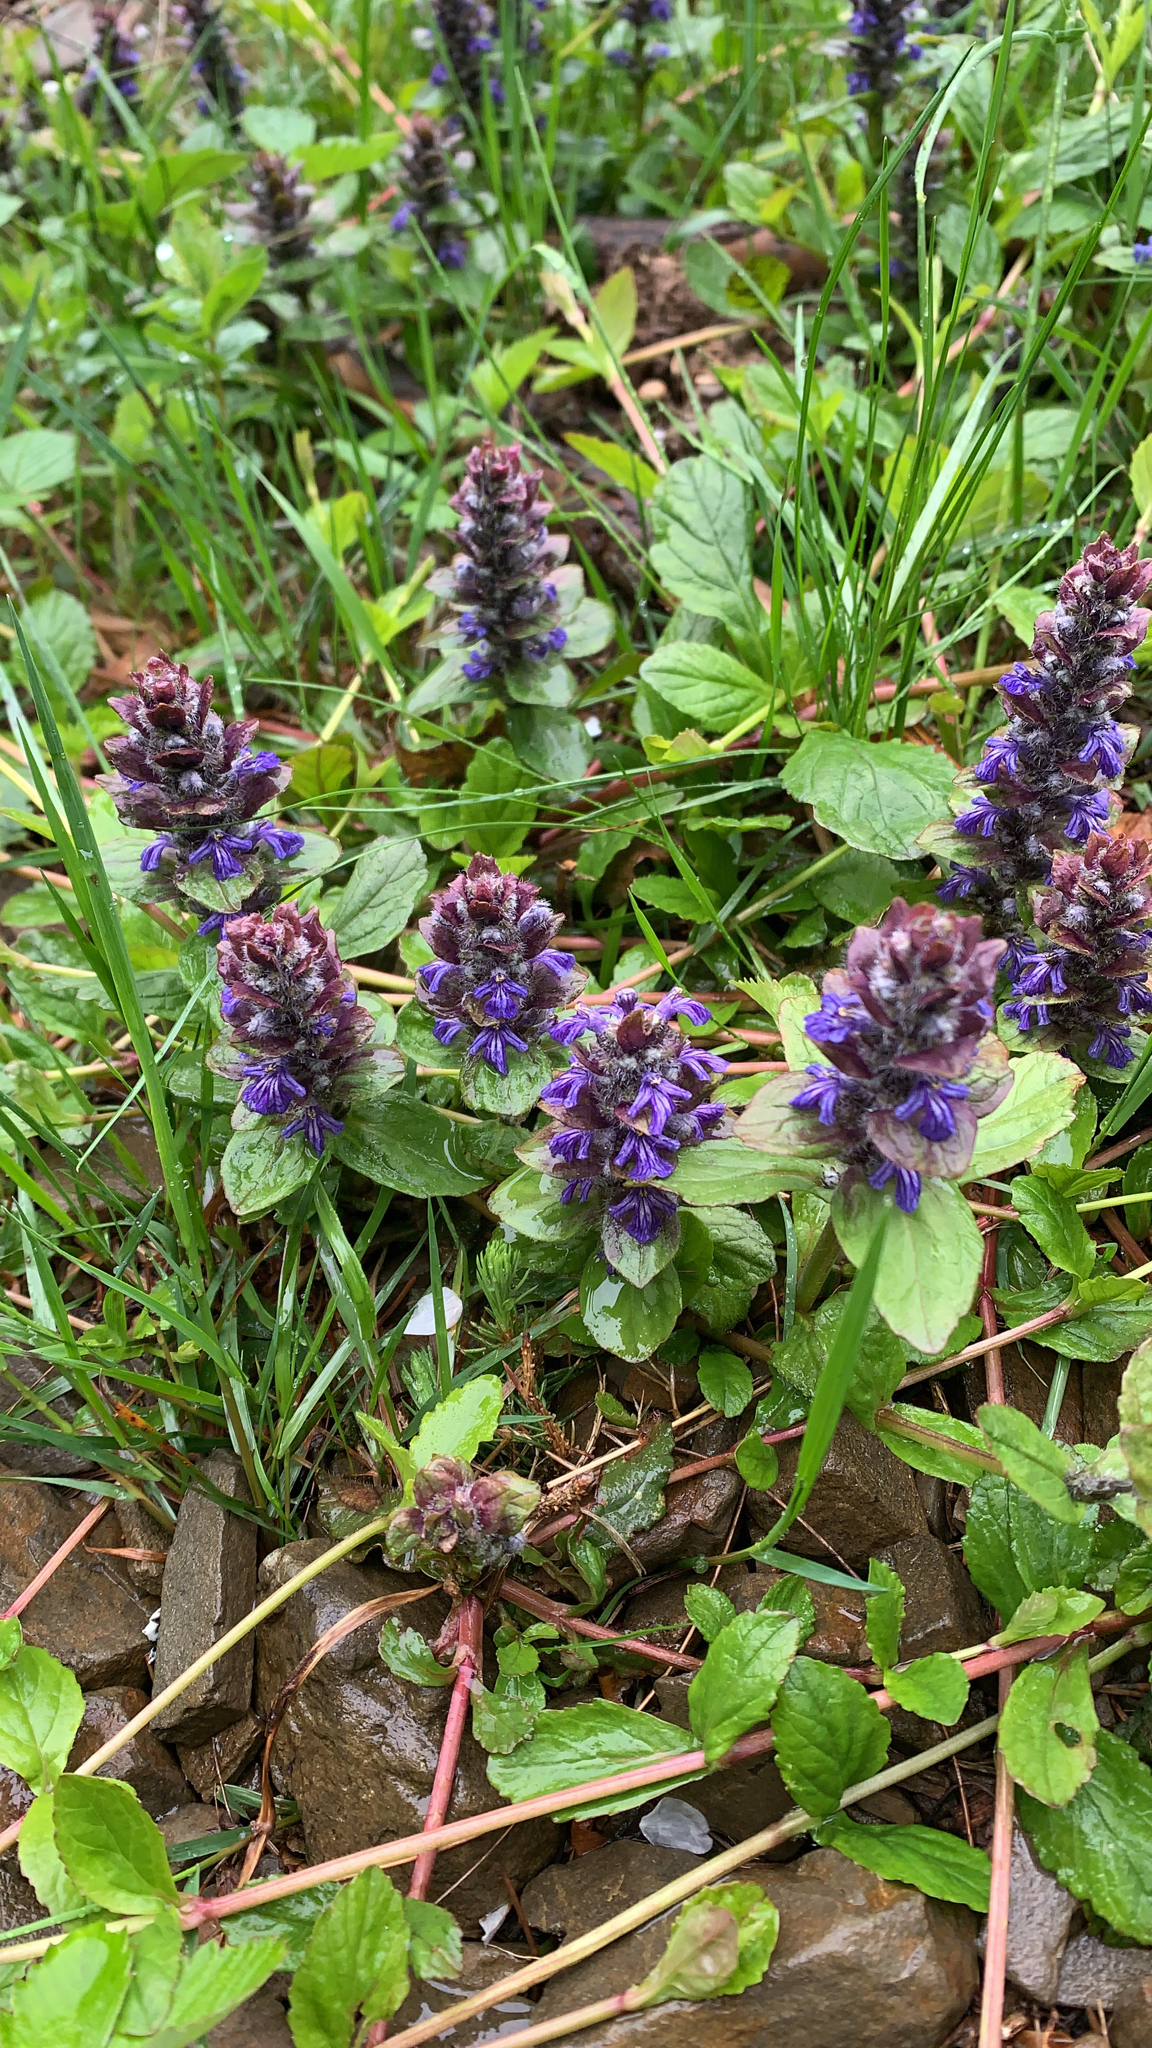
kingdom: Plantae
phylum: Tracheophyta
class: Magnoliopsida
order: Lamiales
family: Lamiaceae
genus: Ajuga
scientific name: Ajuga reptans
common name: Bugle
